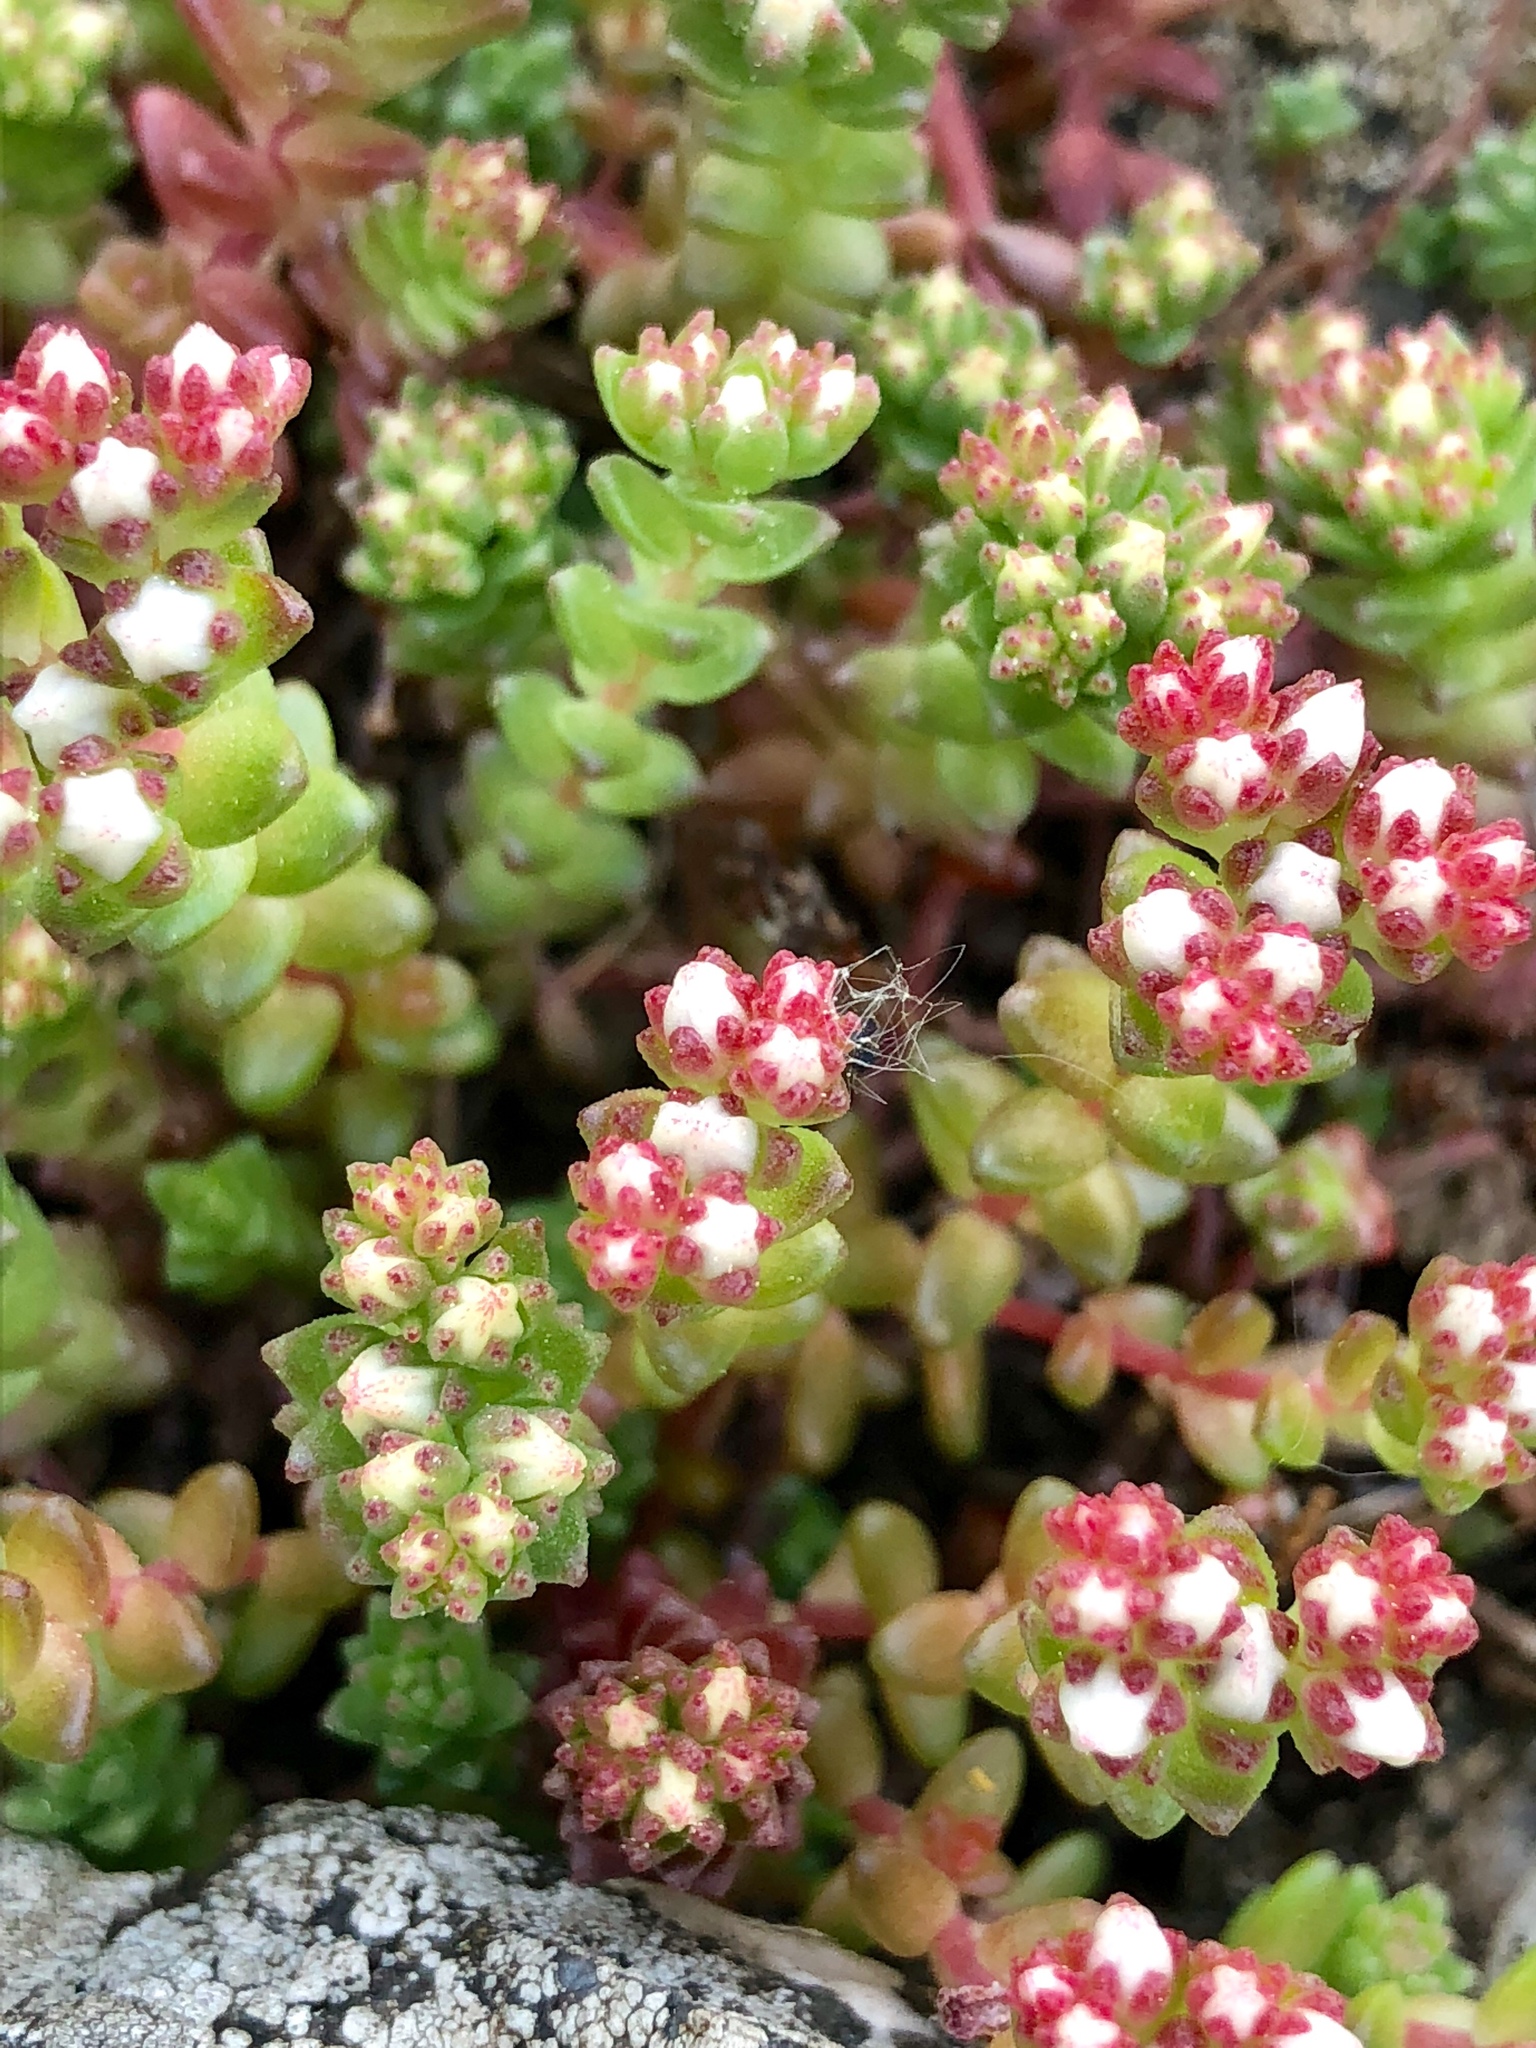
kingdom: Plantae
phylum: Tracheophyta
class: Magnoliopsida
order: Saxifragales
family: Crassulaceae
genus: Sedum
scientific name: Sedum album
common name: White stonecrop
